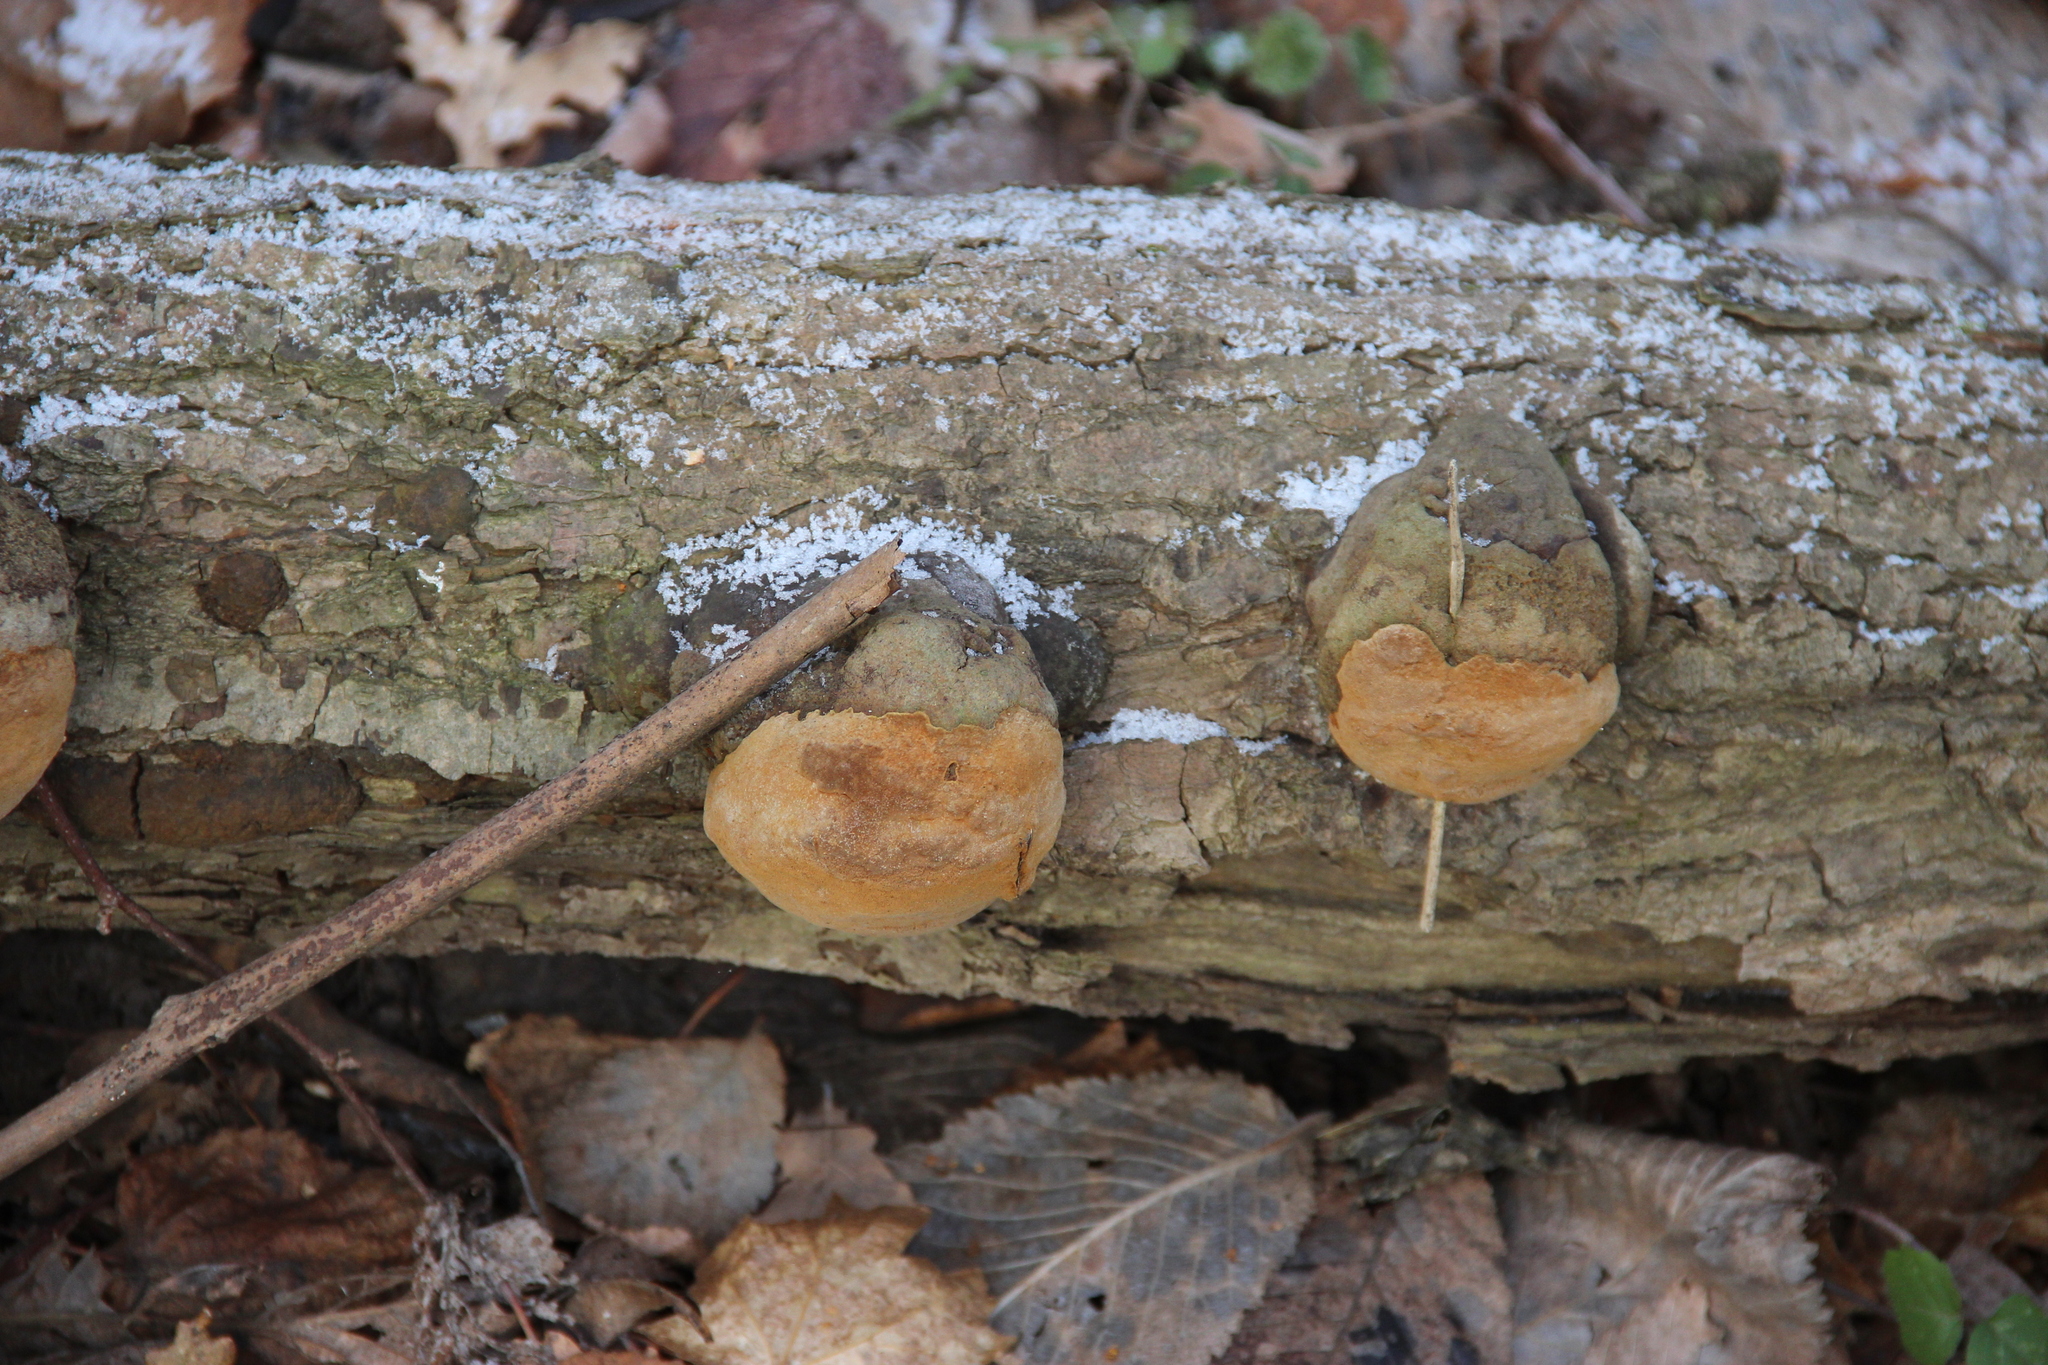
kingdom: Fungi
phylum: Basidiomycota
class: Agaricomycetes
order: Hymenochaetales
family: Hymenochaetaceae
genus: Fomitiporia
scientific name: Fomitiporia robusta
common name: Robust bracket
